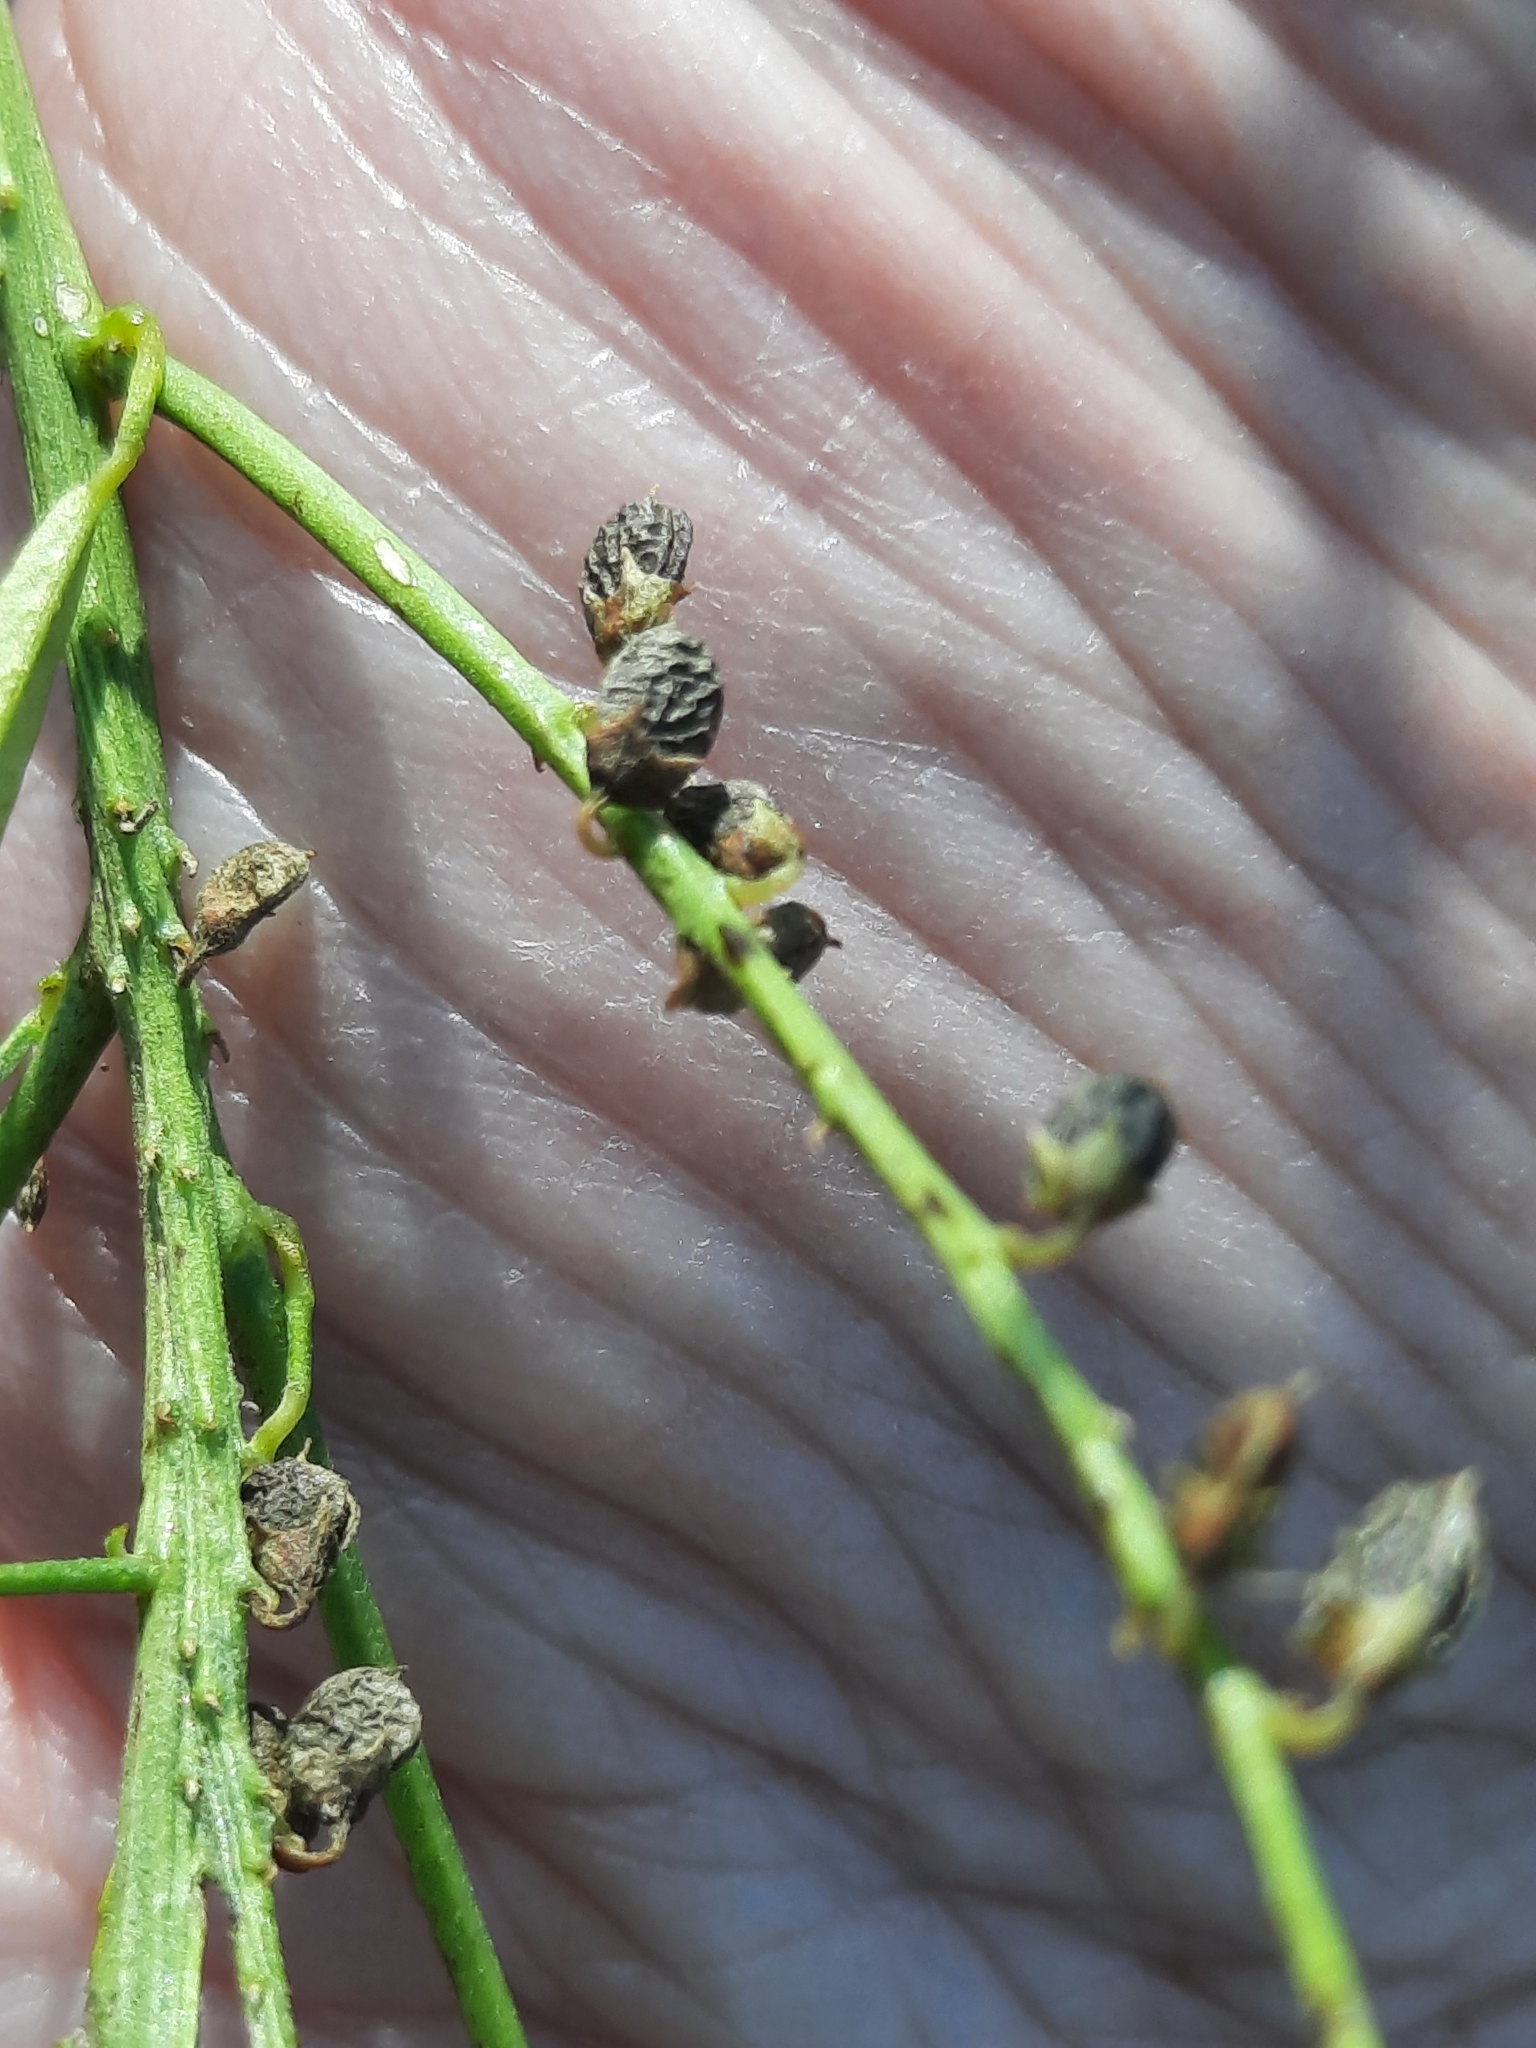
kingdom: Plantae
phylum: Tracheophyta
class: Magnoliopsida
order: Fabales
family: Fabaceae
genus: Melilotus
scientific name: Melilotus albus
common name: White melilot
